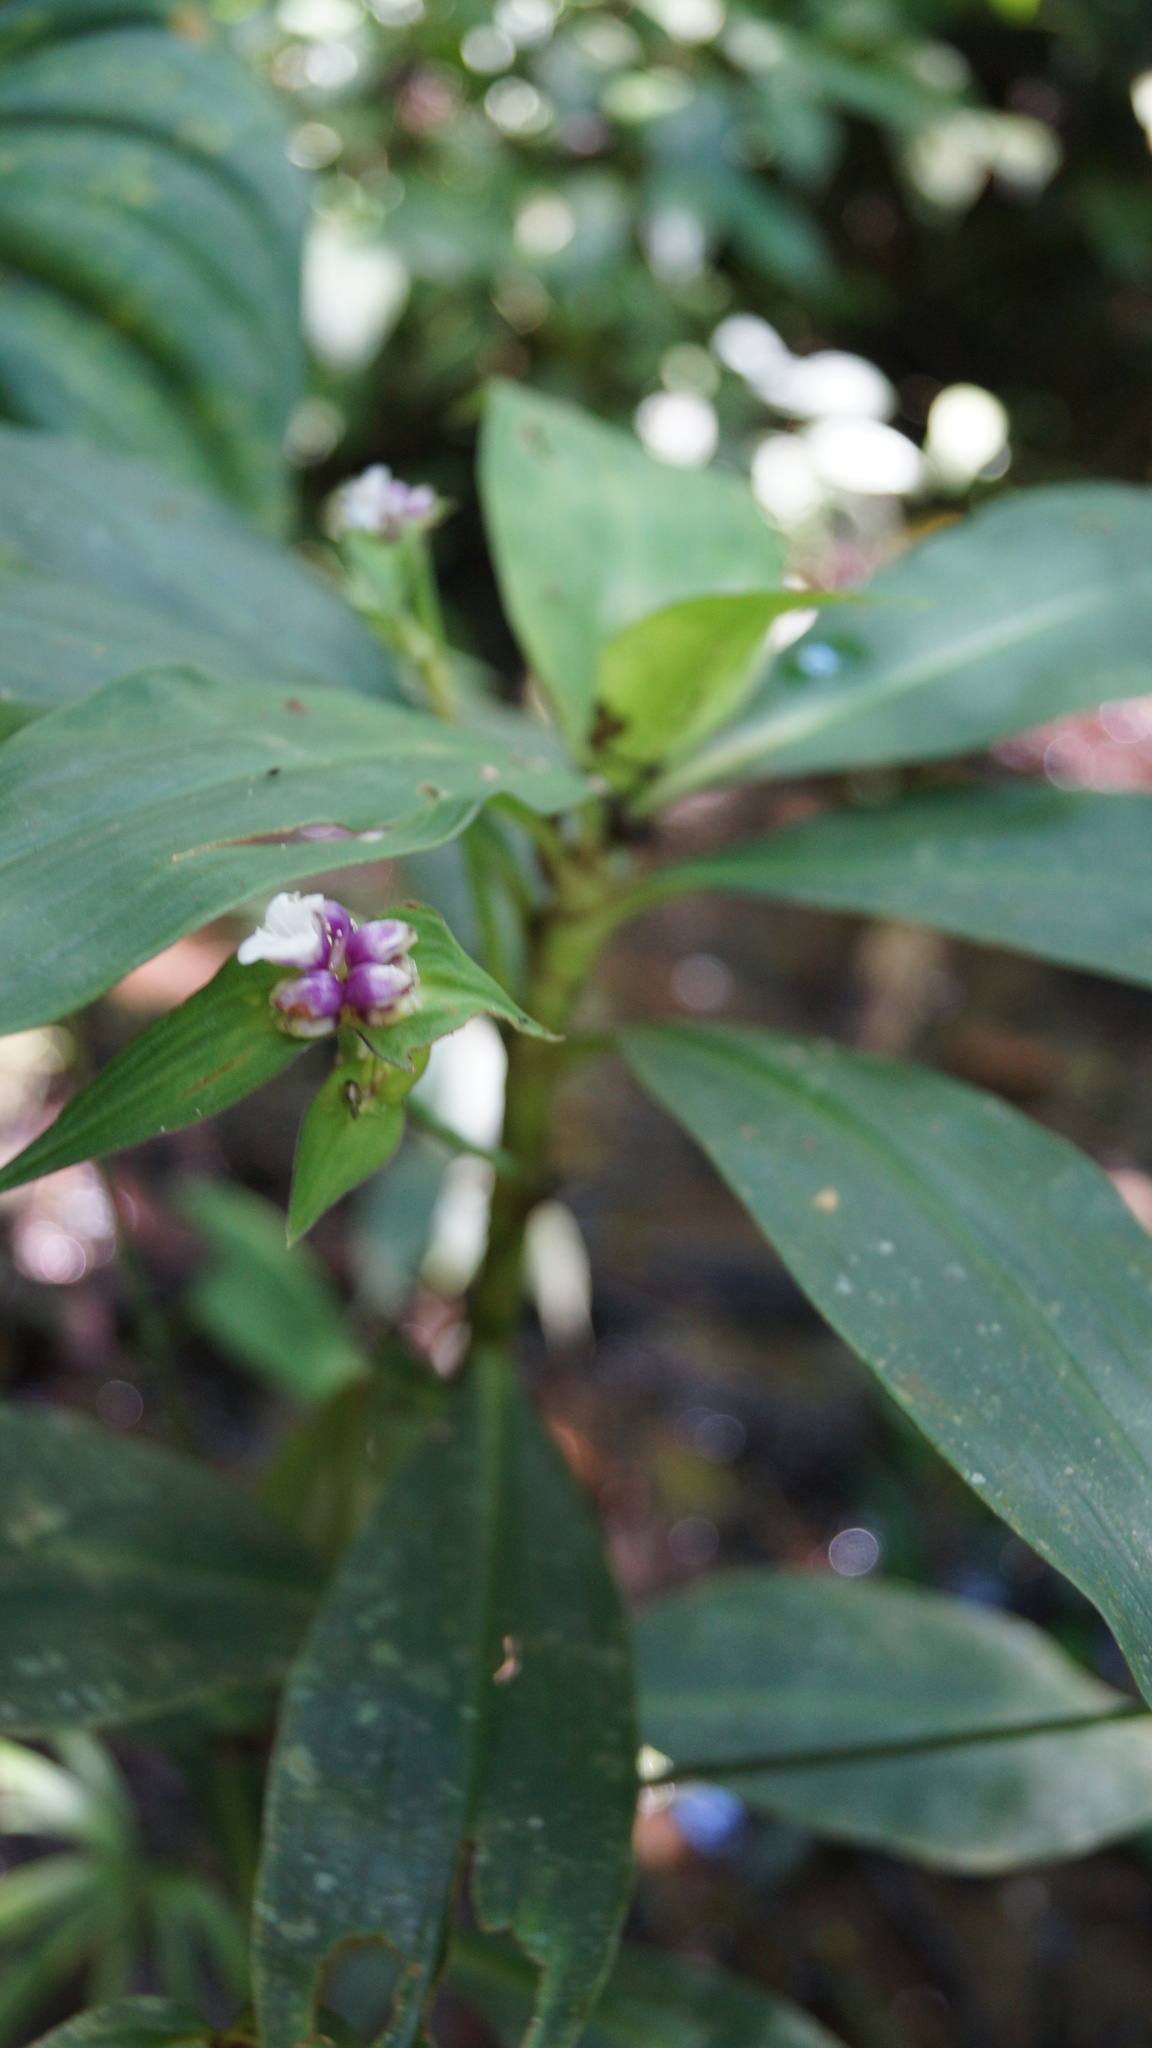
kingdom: Plantae
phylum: Tracheophyta
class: Liliopsida
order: Commelinales
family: Commelinaceae
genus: Tradescantia
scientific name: Tradescantia zanonia
